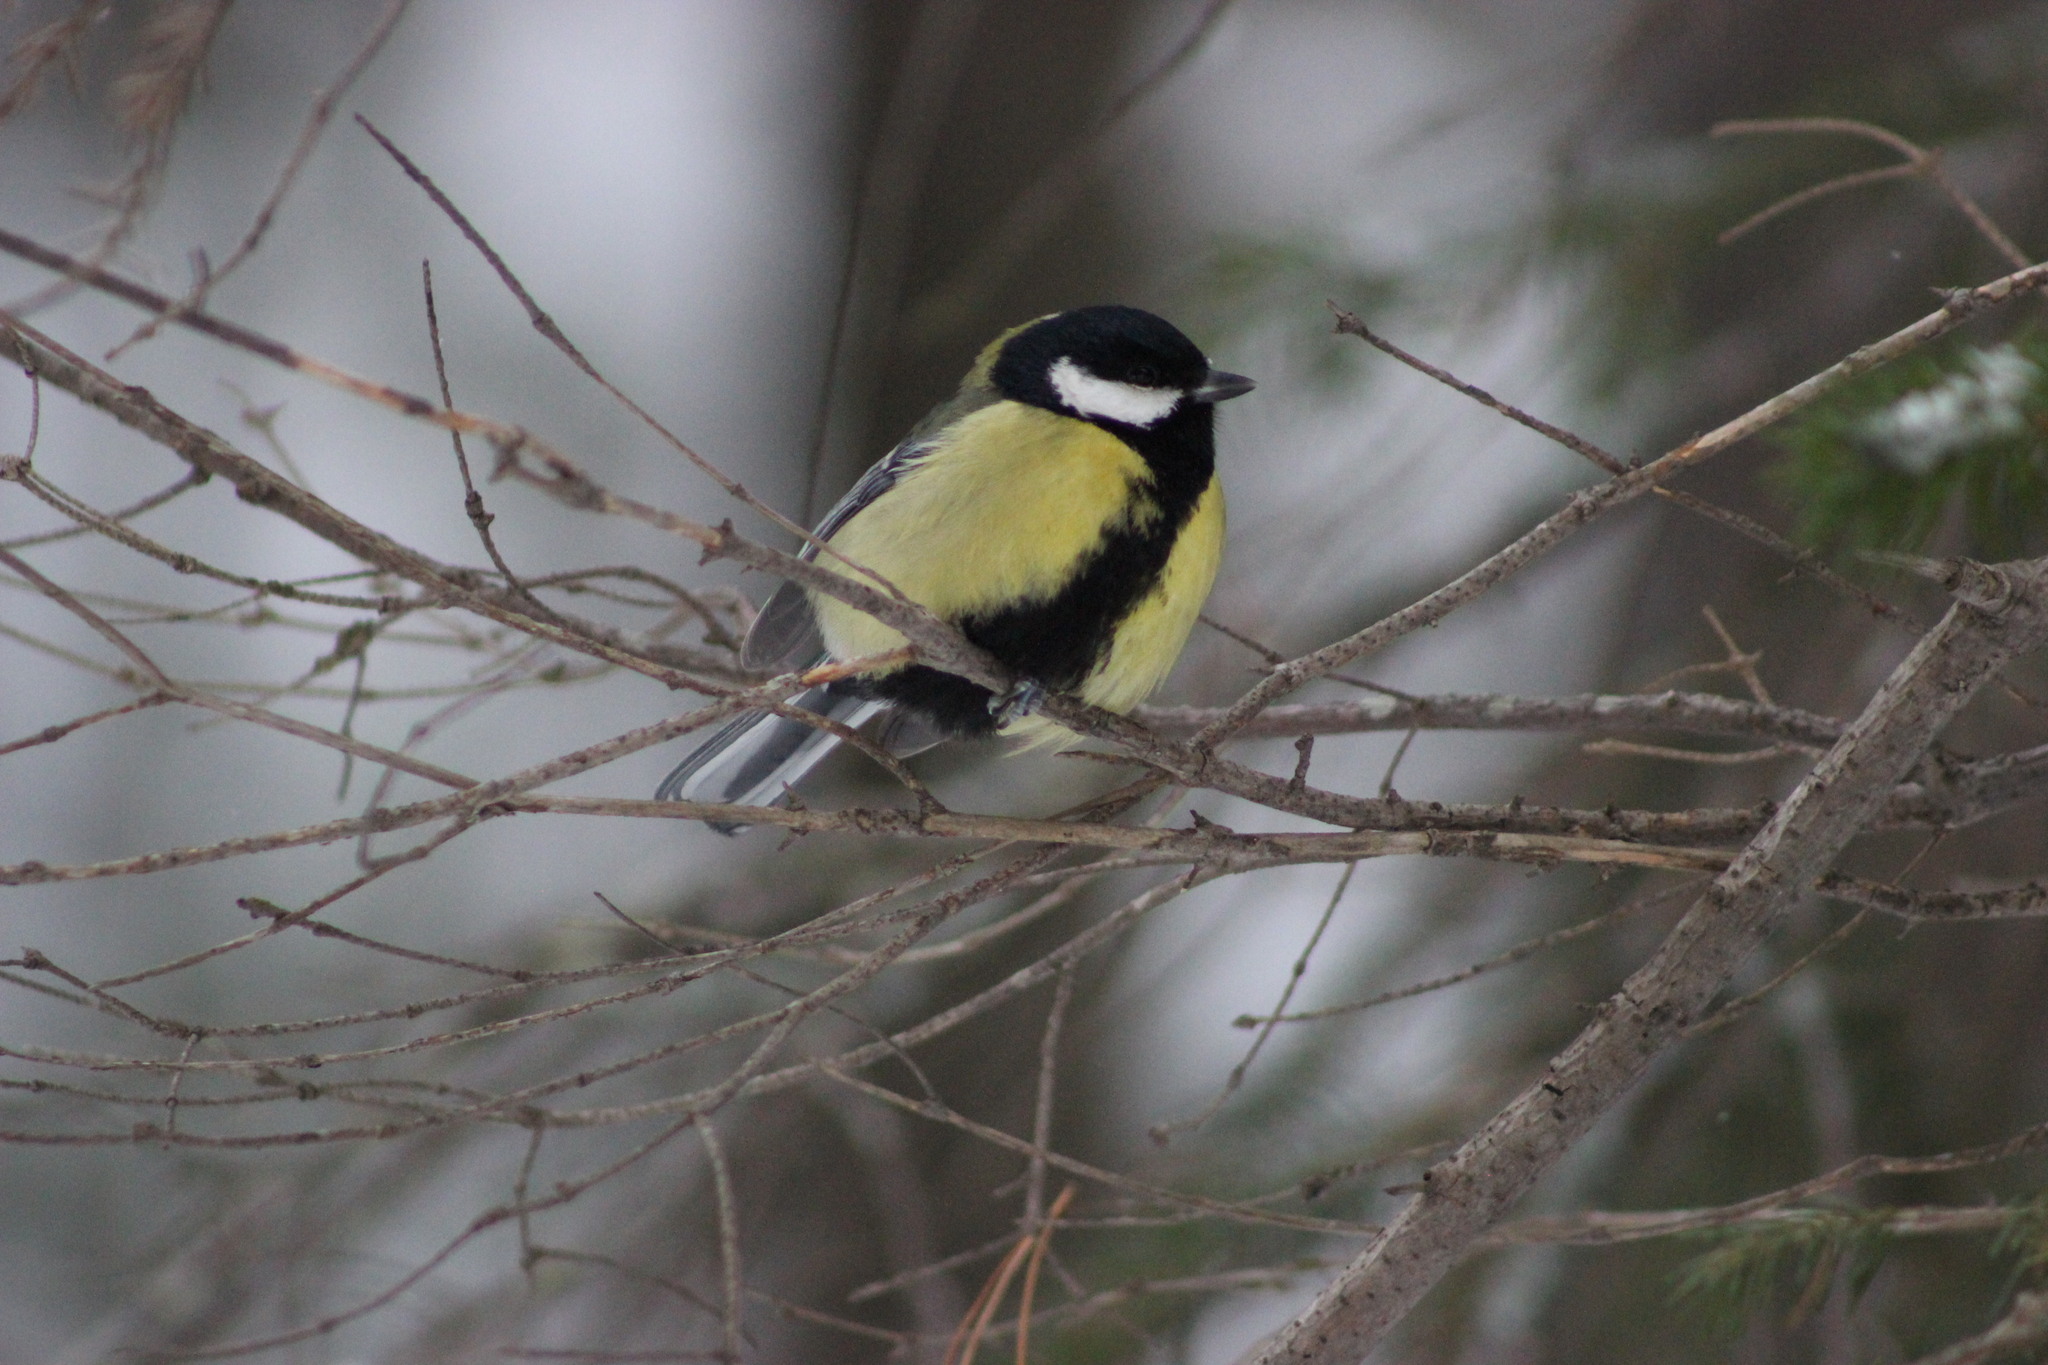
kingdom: Animalia
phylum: Chordata
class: Aves
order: Passeriformes
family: Paridae
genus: Parus
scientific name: Parus major
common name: Great tit
